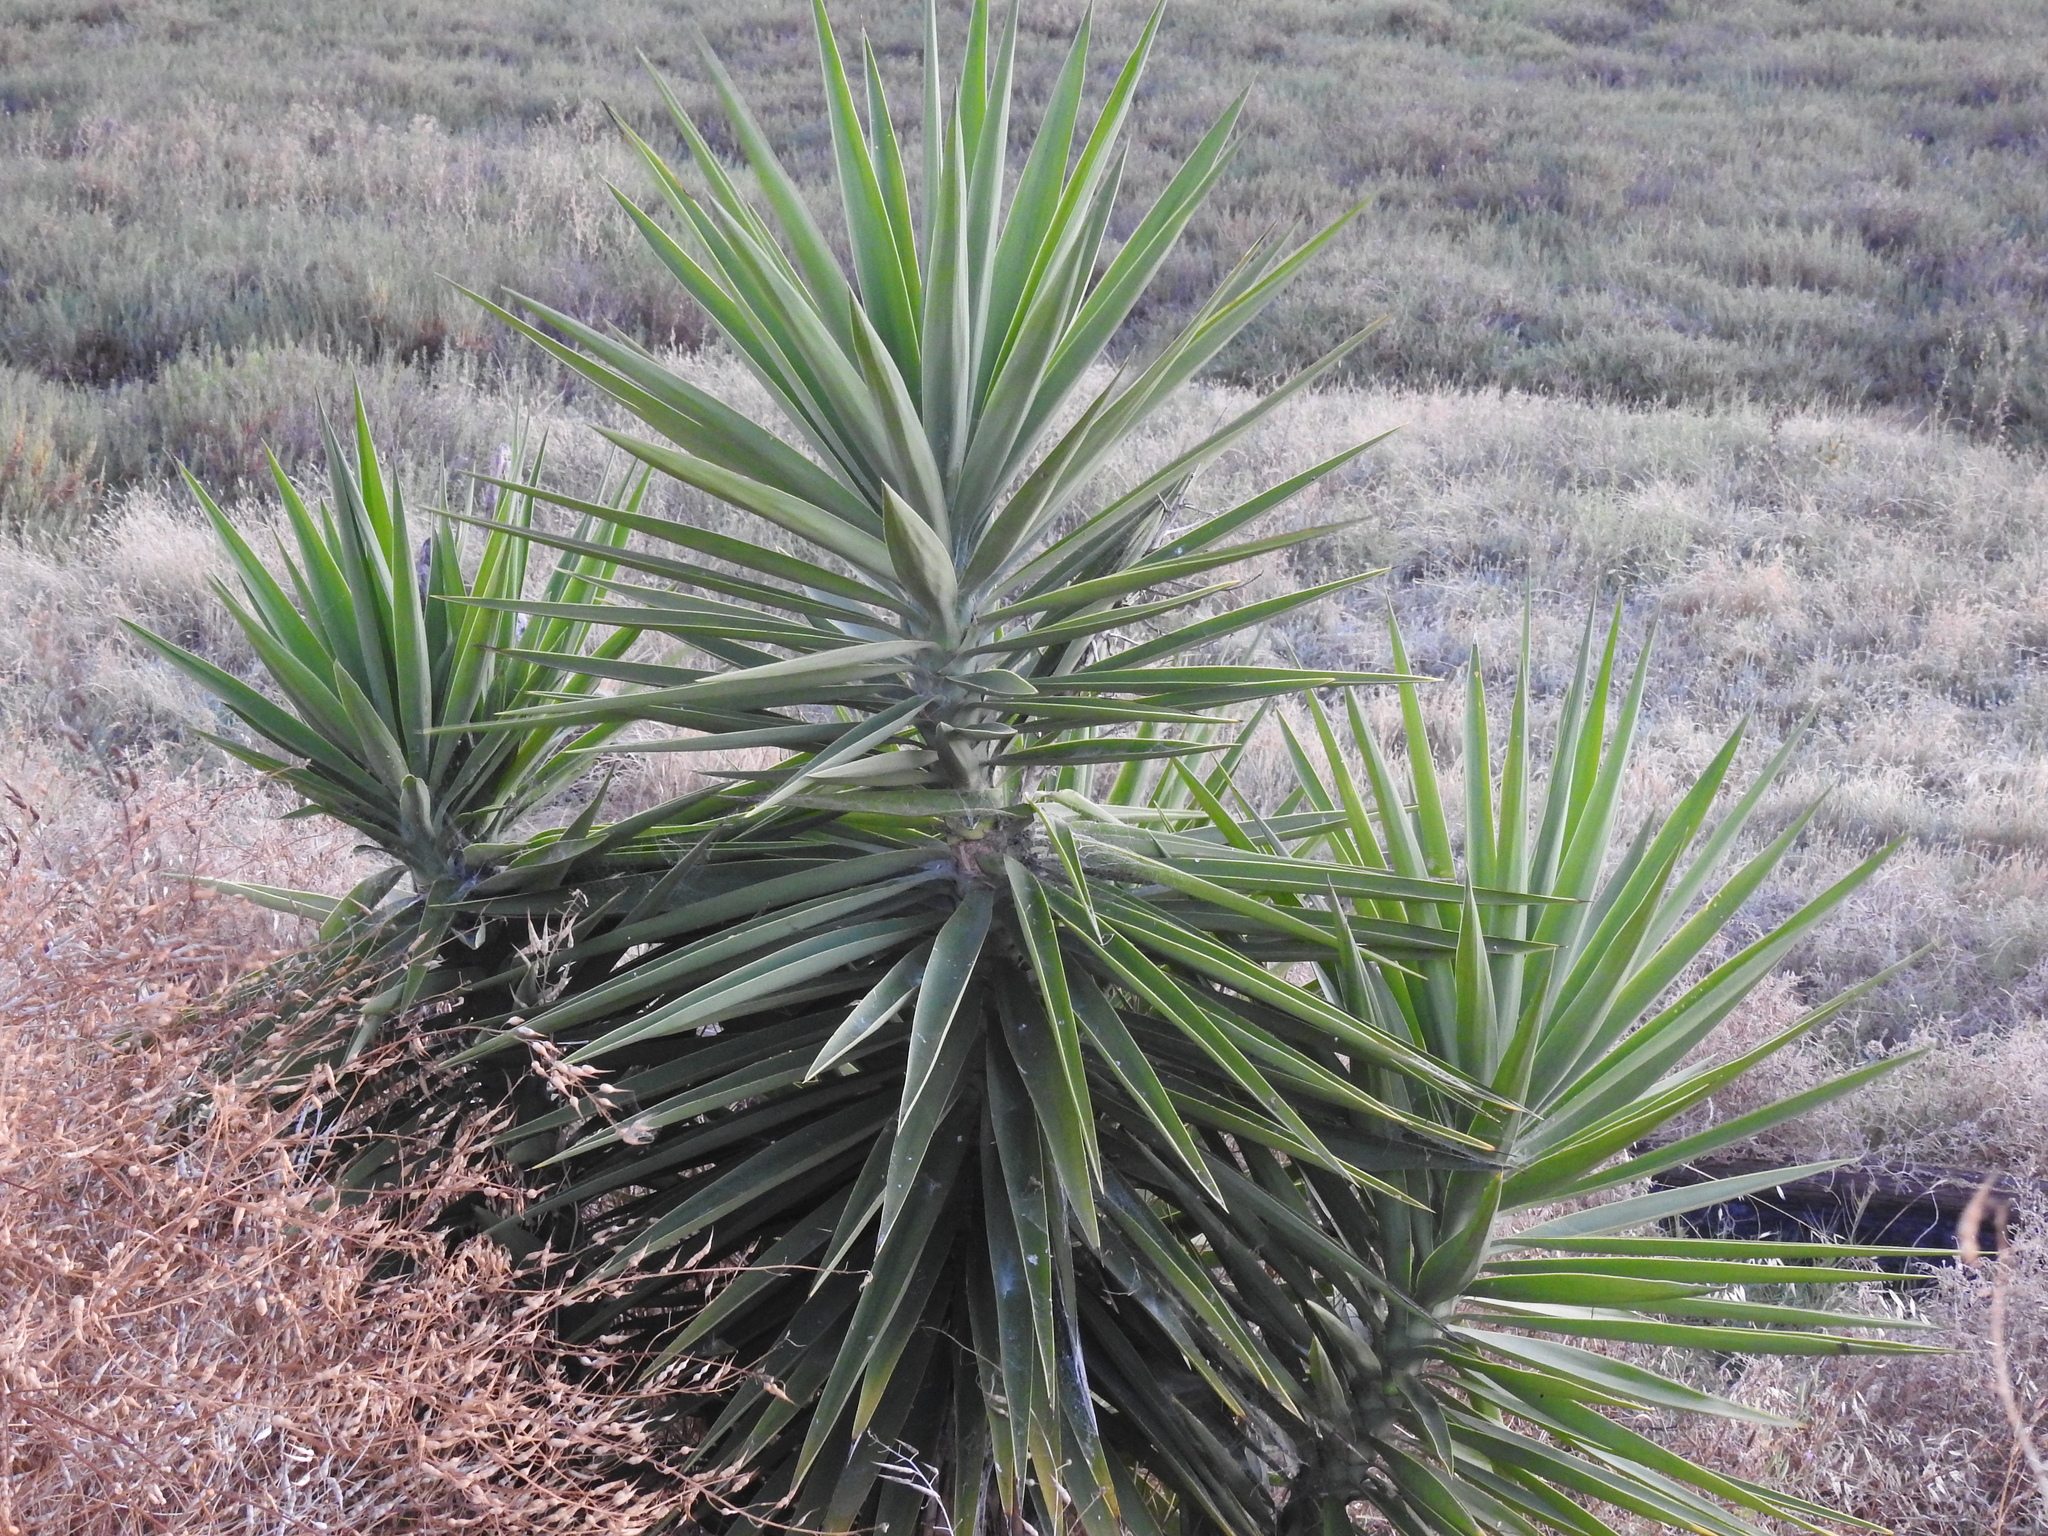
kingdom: Plantae
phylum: Tracheophyta
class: Liliopsida
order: Asparagales
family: Asparagaceae
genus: Yucca
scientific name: Yucca gigantea
